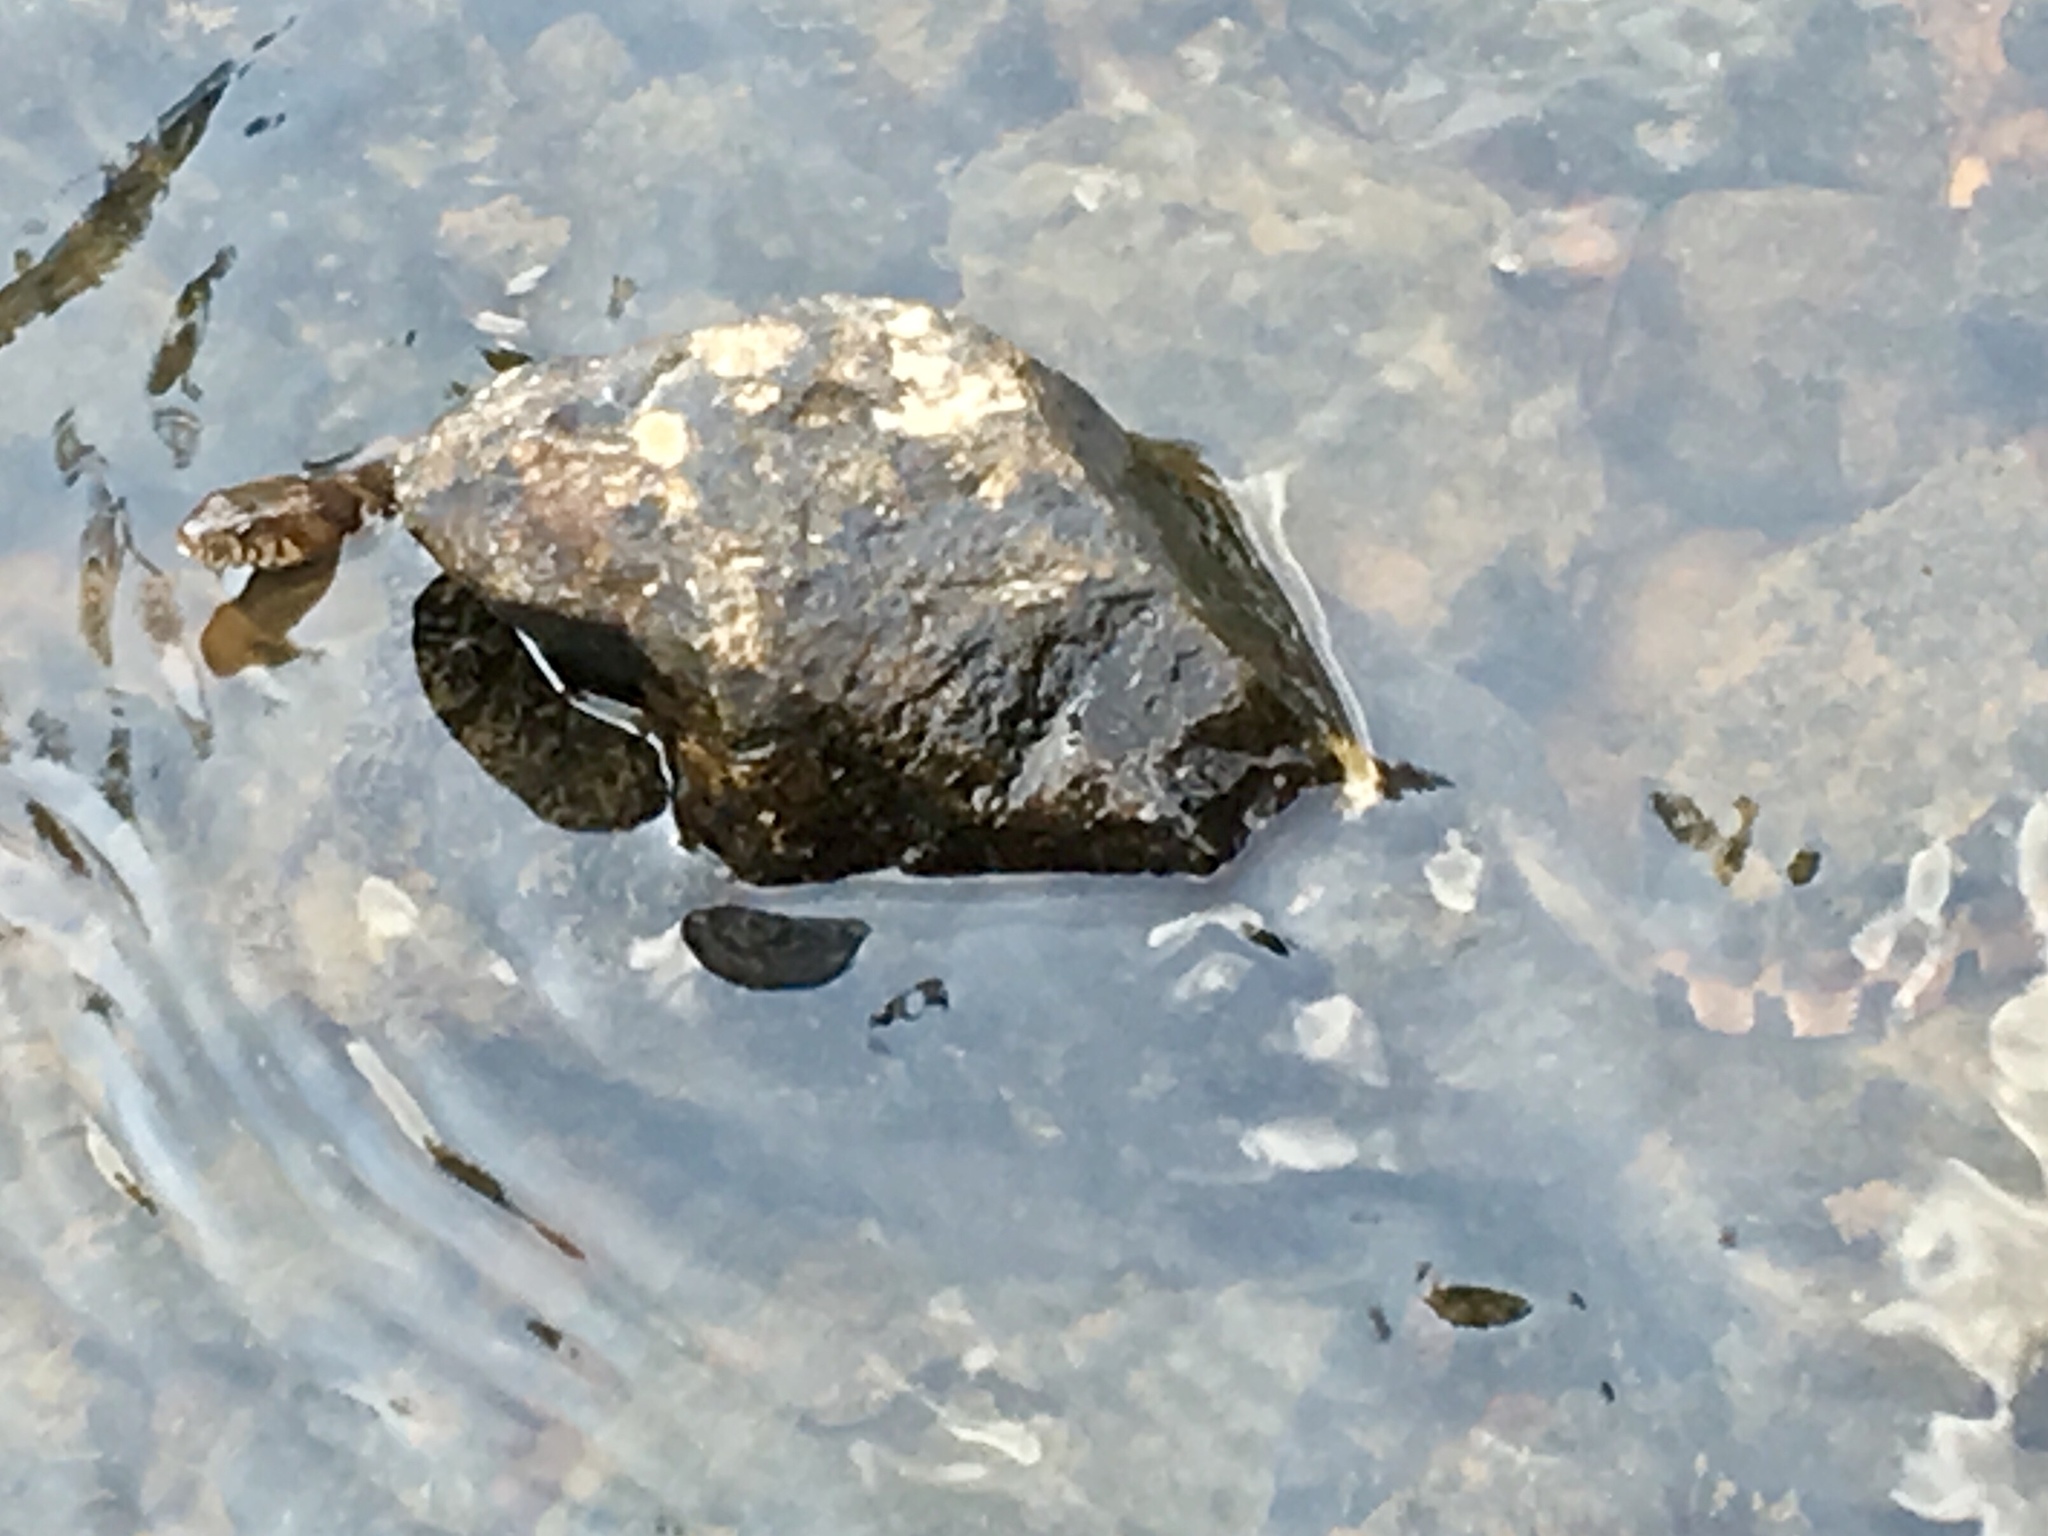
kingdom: Animalia
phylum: Chordata
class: Squamata
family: Colubridae
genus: Nerodia
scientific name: Nerodia sipedon
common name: Northern water snake
